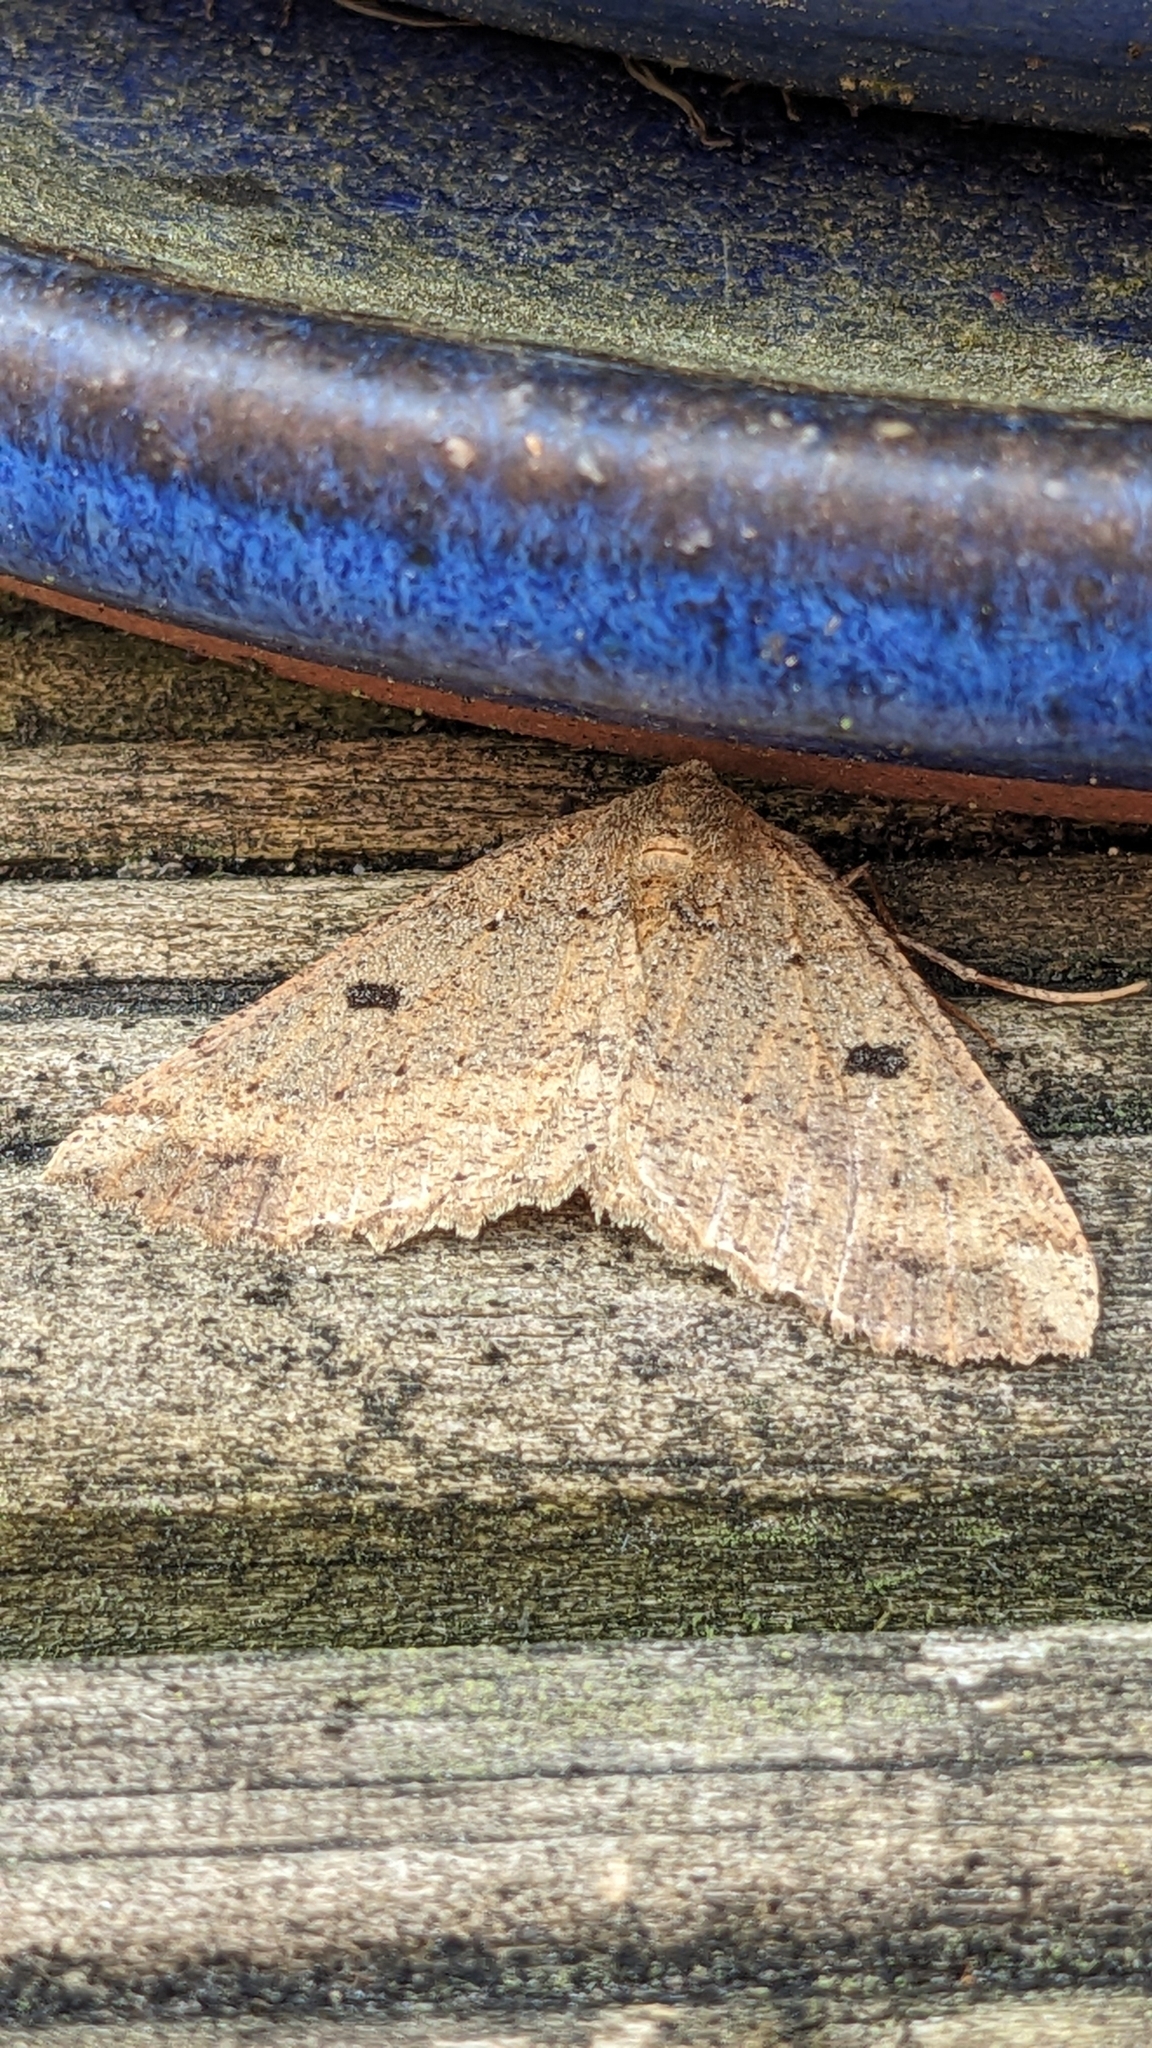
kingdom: Animalia
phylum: Arthropoda
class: Insecta
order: Lepidoptera
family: Geometridae
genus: Cleora
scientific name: Cleora scriptaria
